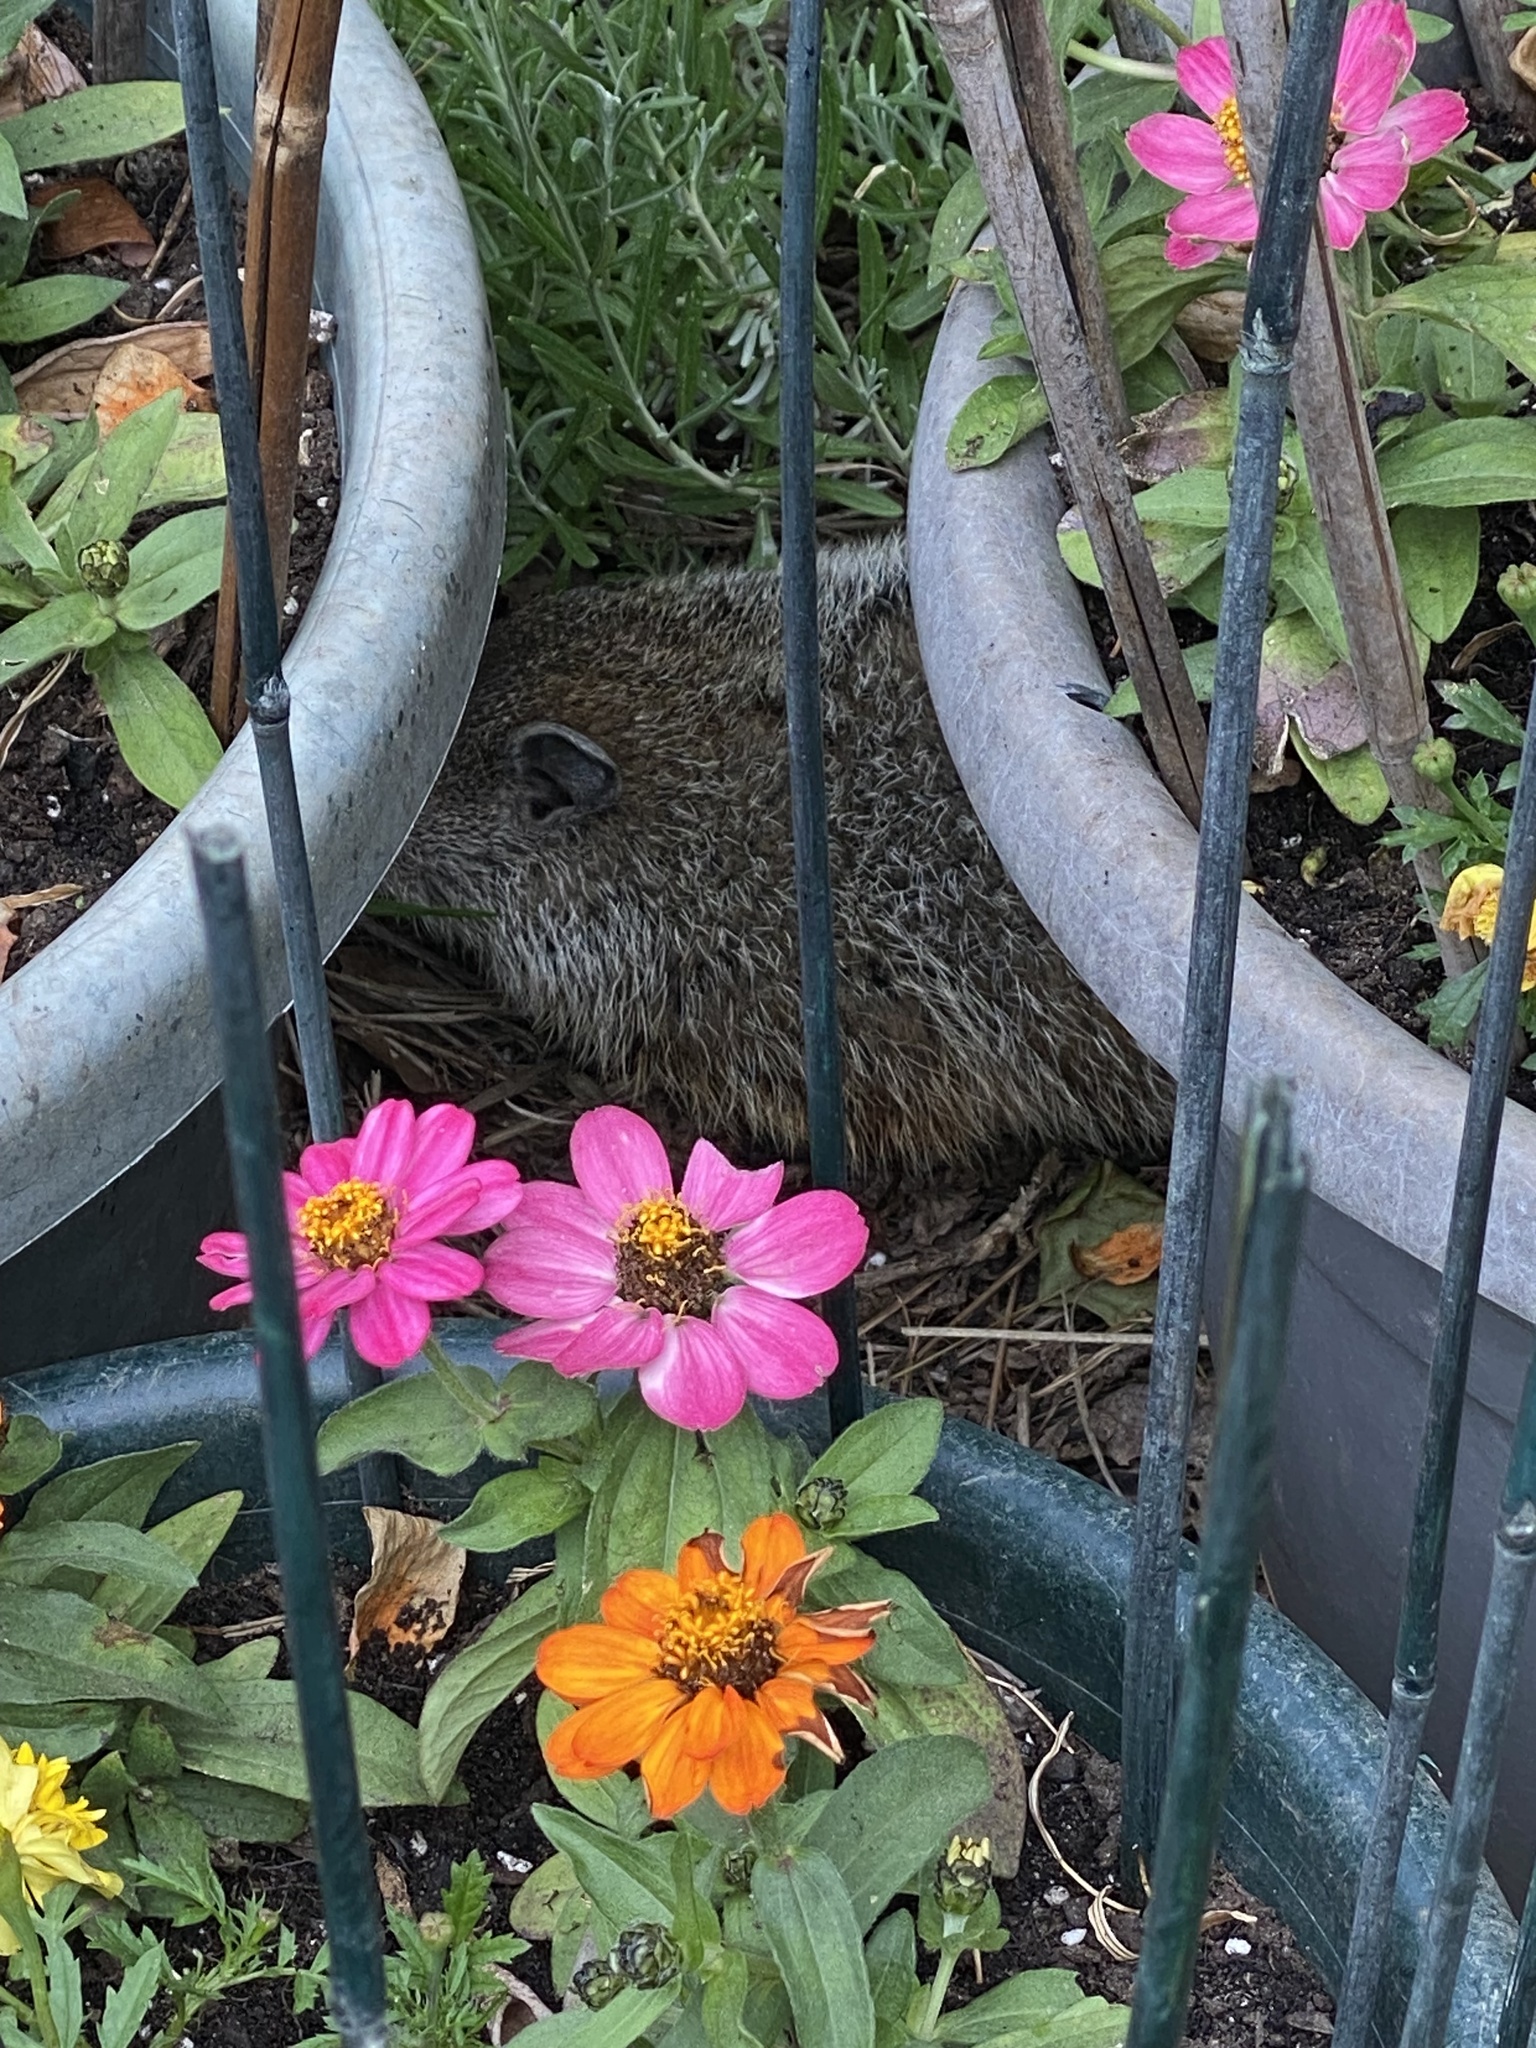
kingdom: Animalia
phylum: Chordata
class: Mammalia
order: Rodentia
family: Sciuridae
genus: Marmota
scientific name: Marmota monax
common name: Groundhog
